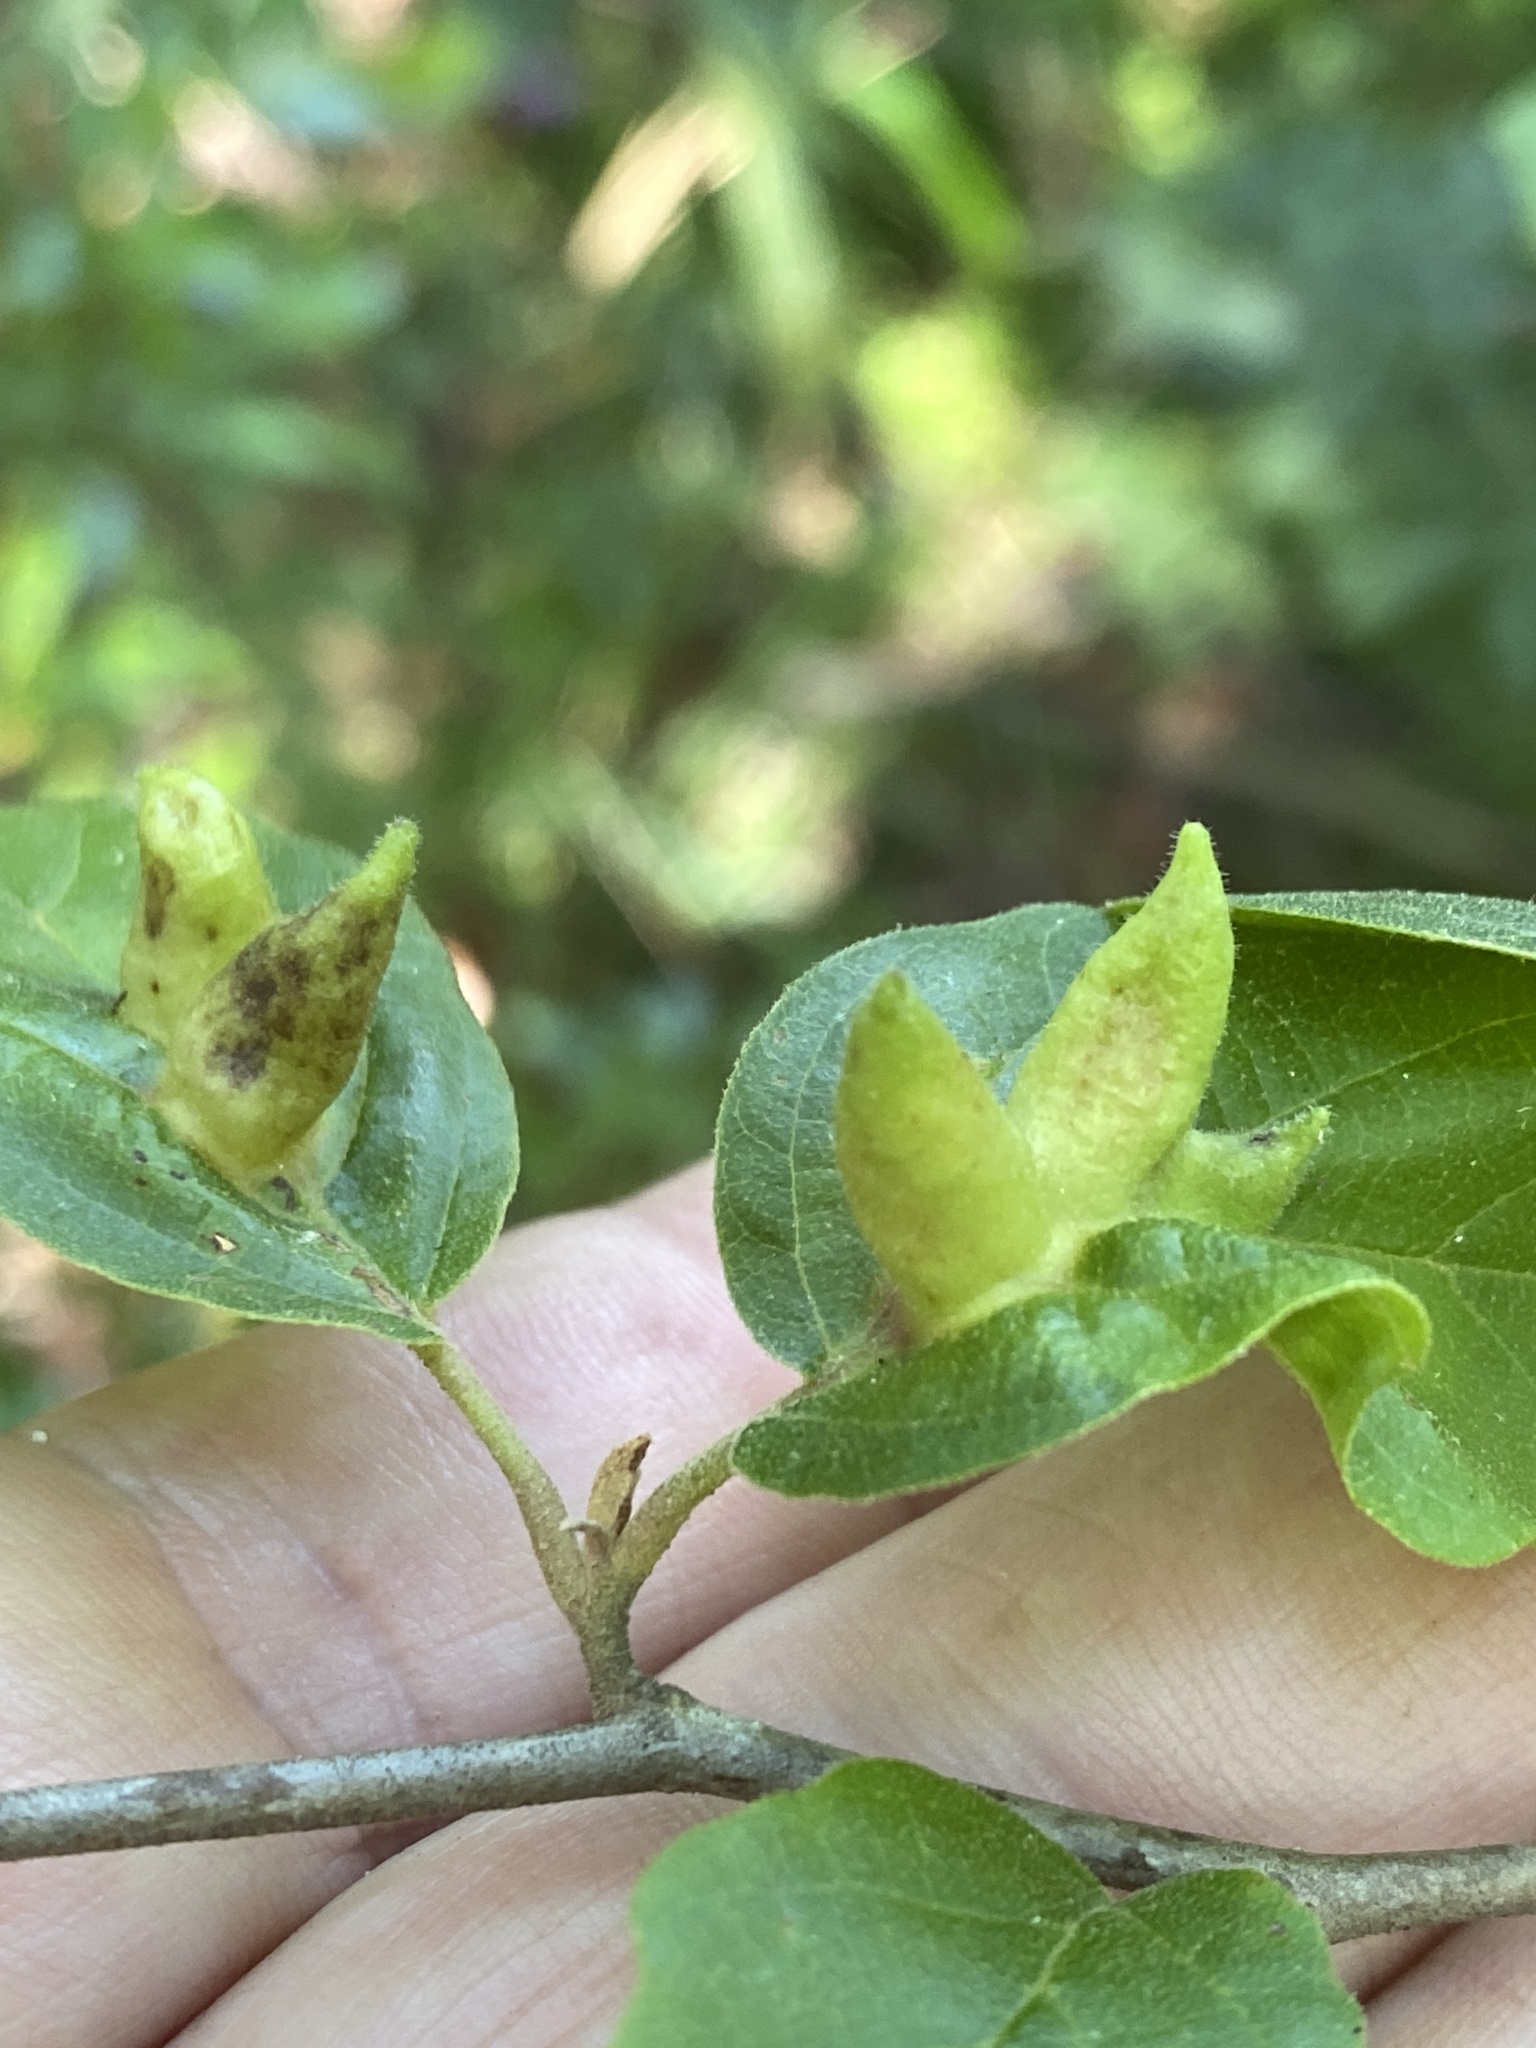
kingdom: Animalia
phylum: Arthropoda
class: Insecta
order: Hemiptera
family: Aphididae
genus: Hormaphis
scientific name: Hormaphis hamamelidis
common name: Witch-hazel cone gall aphid
